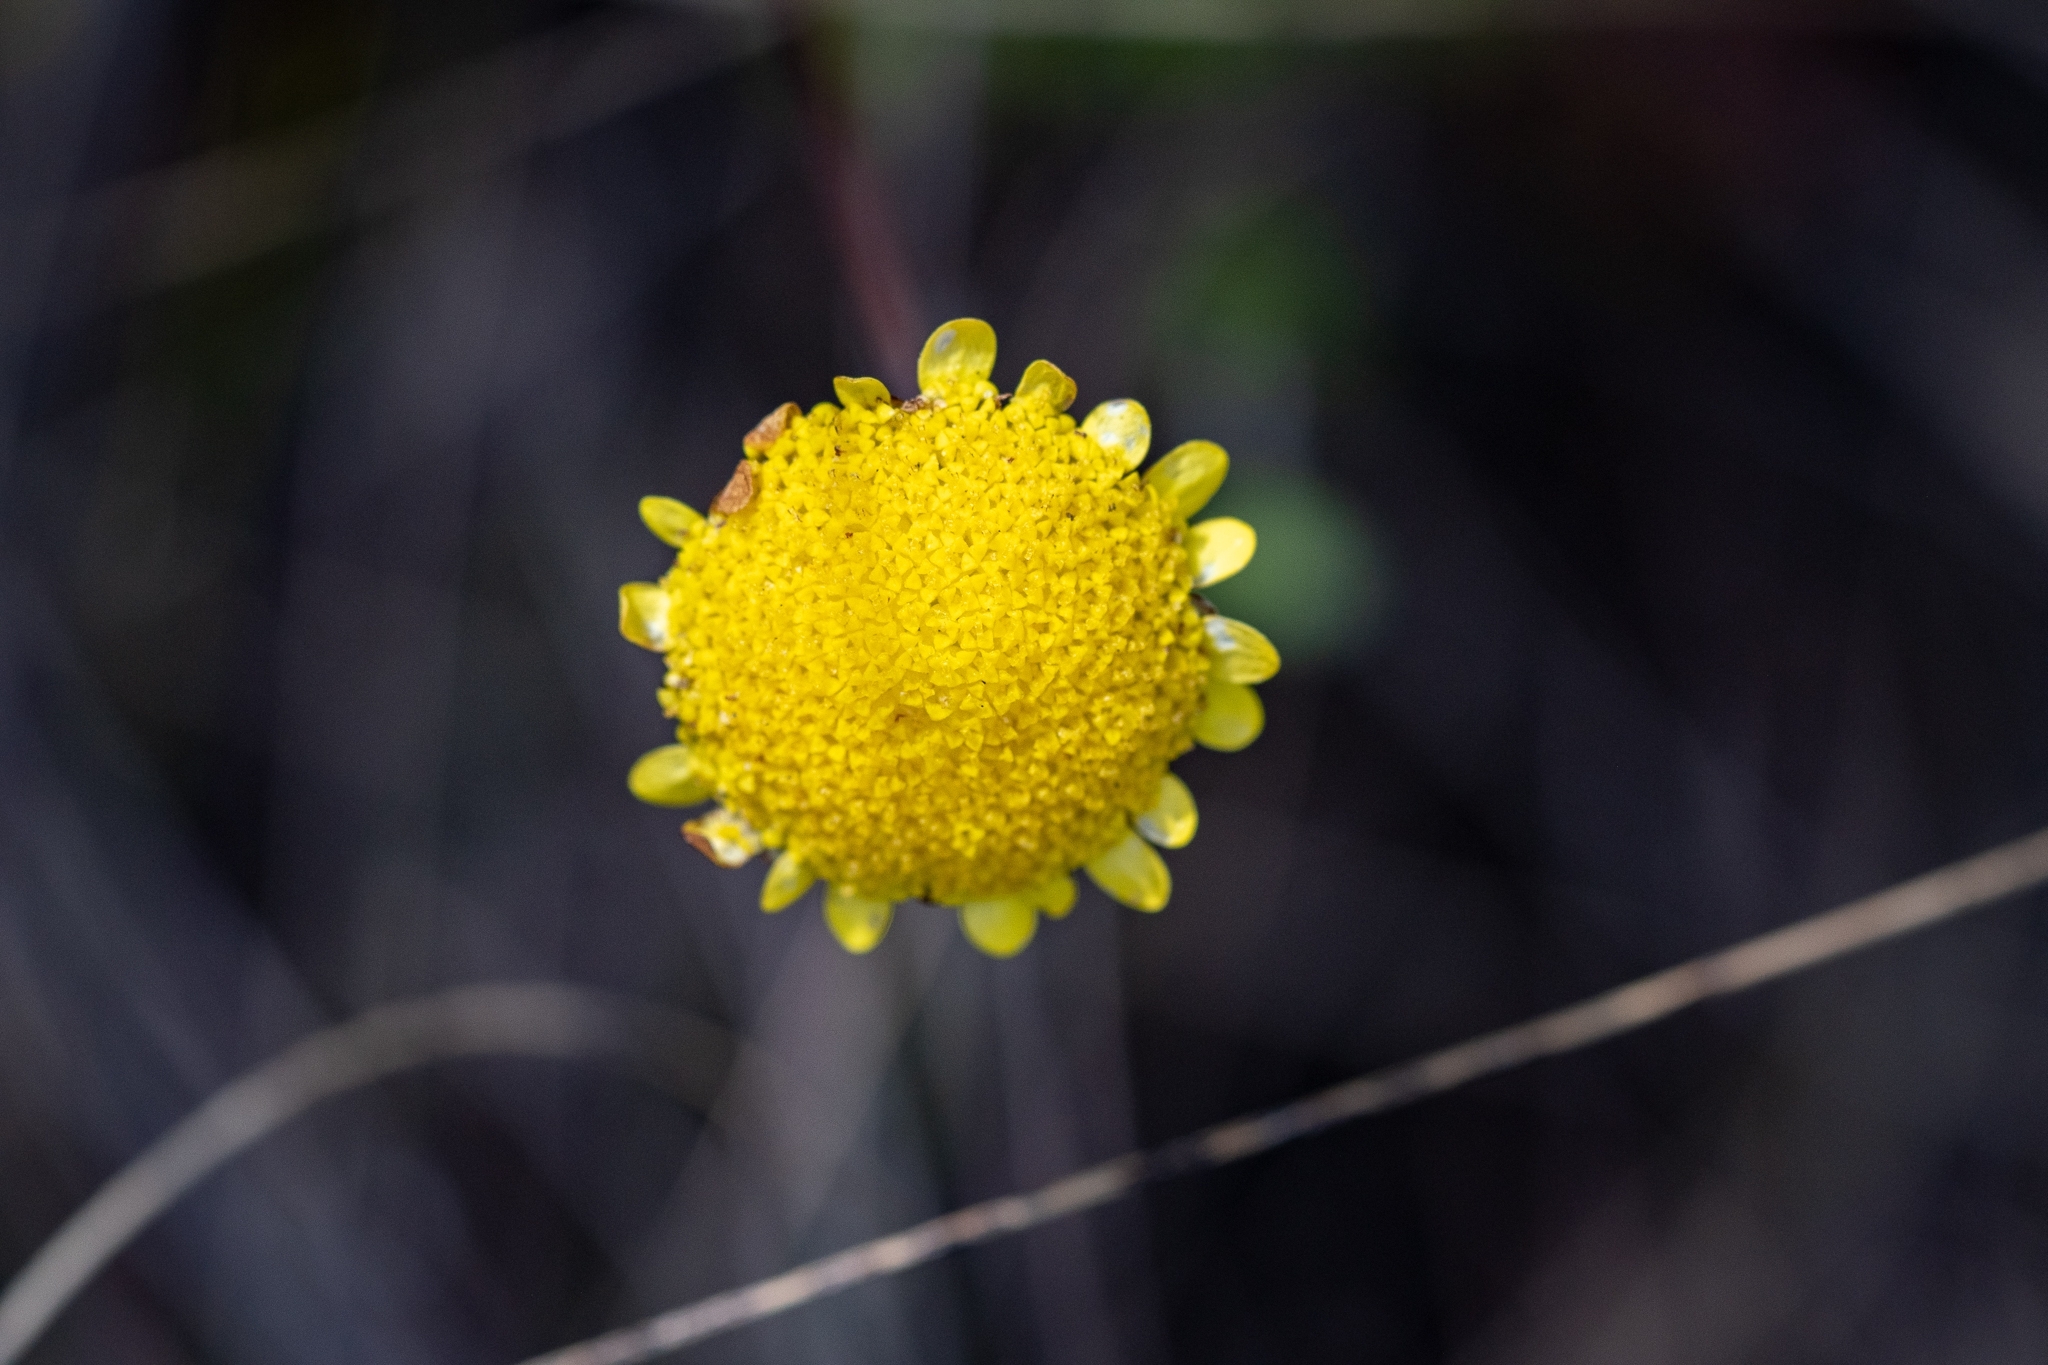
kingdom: Plantae
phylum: Tracheophyta
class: Magnoliopsida
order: Asterales
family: Asteraceae
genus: Cotula
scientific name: Cotula pruinosa
